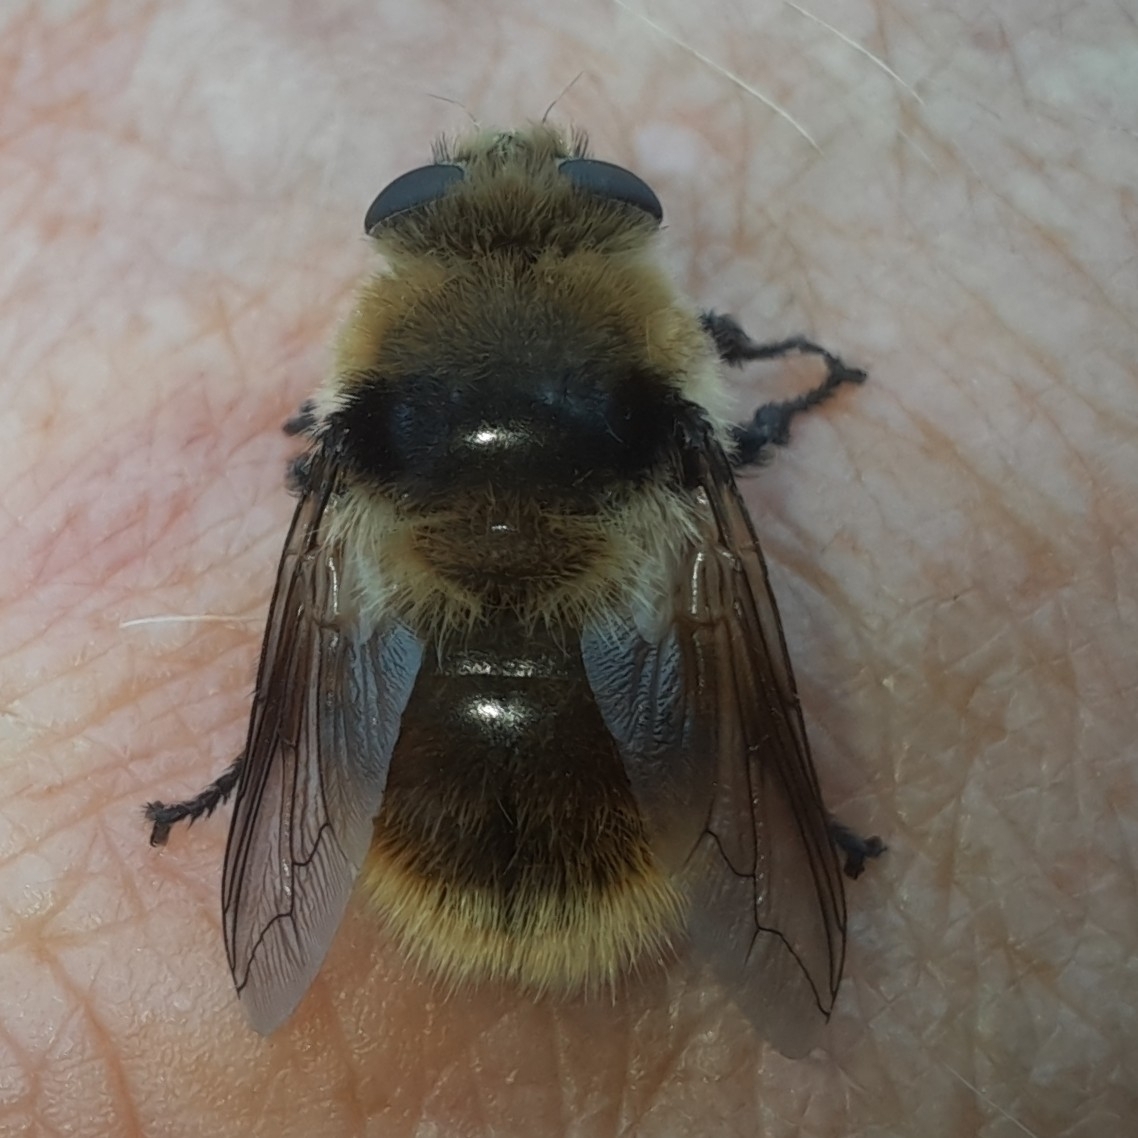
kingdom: Animalia
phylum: Arthropoda
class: Insecta
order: Diptera
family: Oestridae
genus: Cephenemyia
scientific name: Cephenemyia stimulator
